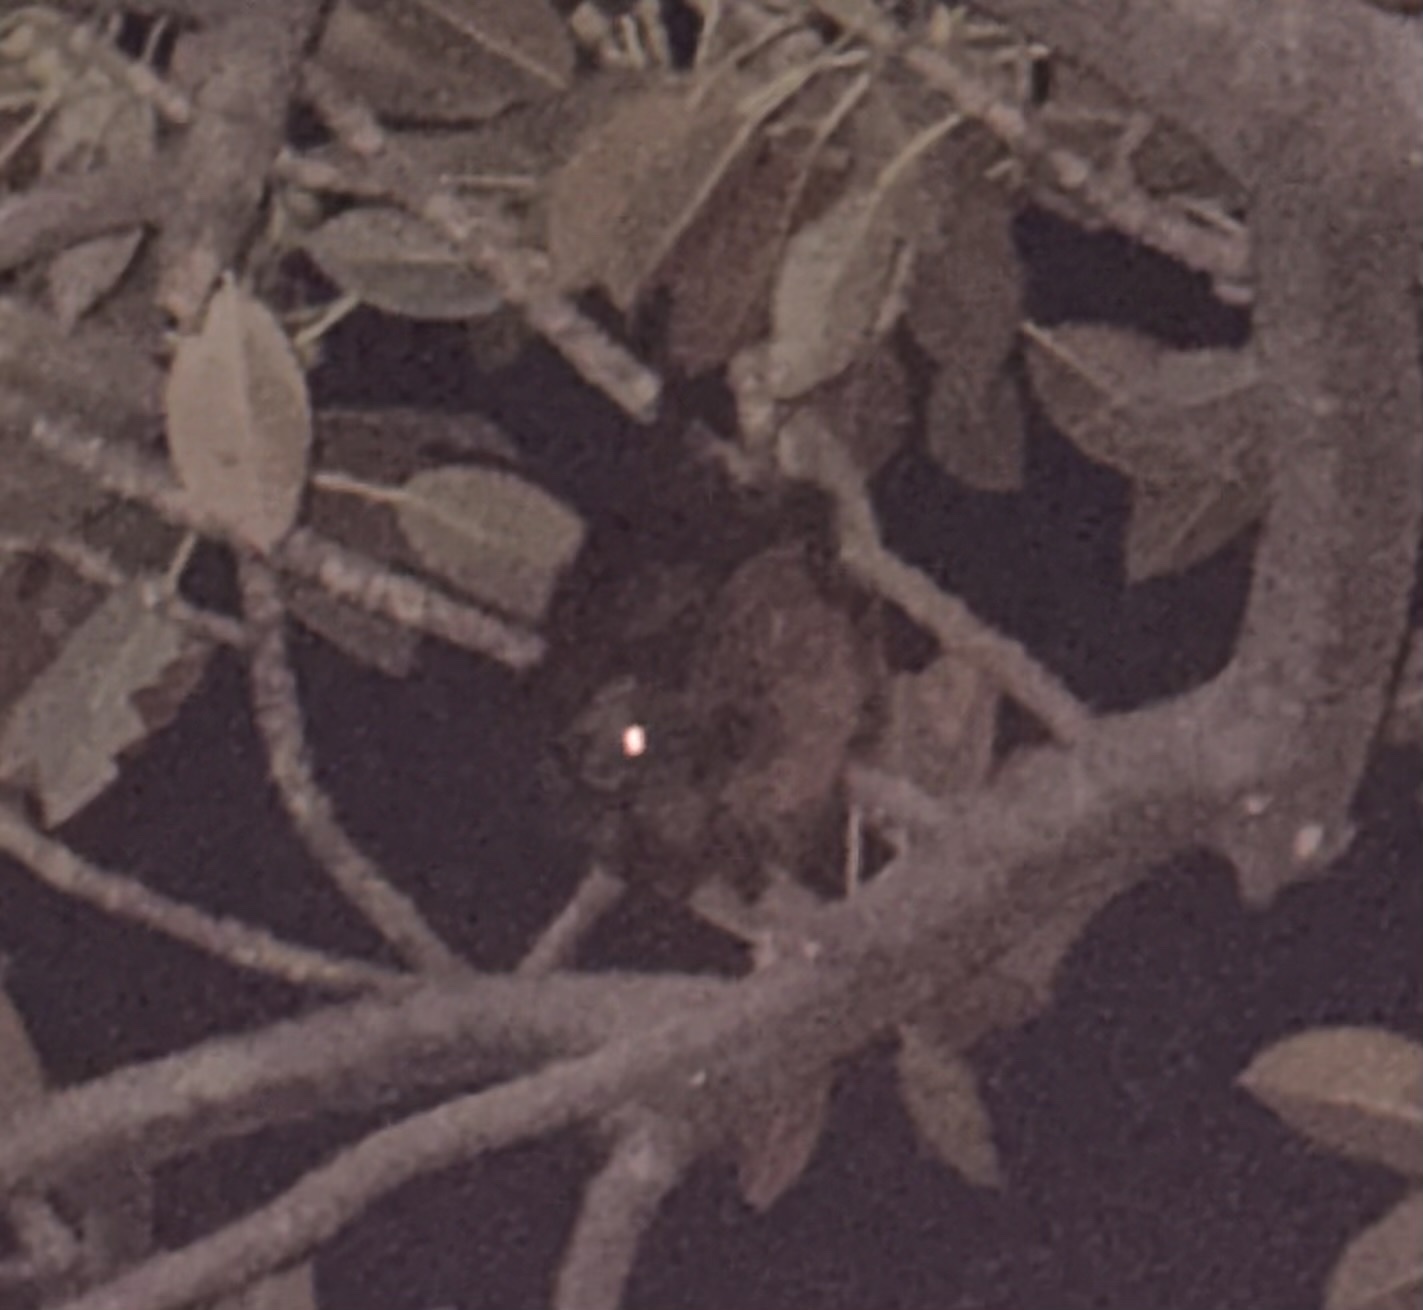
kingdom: Animalia
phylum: Chordata
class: Mammalia
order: Chiroptera
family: Pteropodidae
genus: Pteropus
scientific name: Pteropus poliocephalus
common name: Gray-headed flying fox
